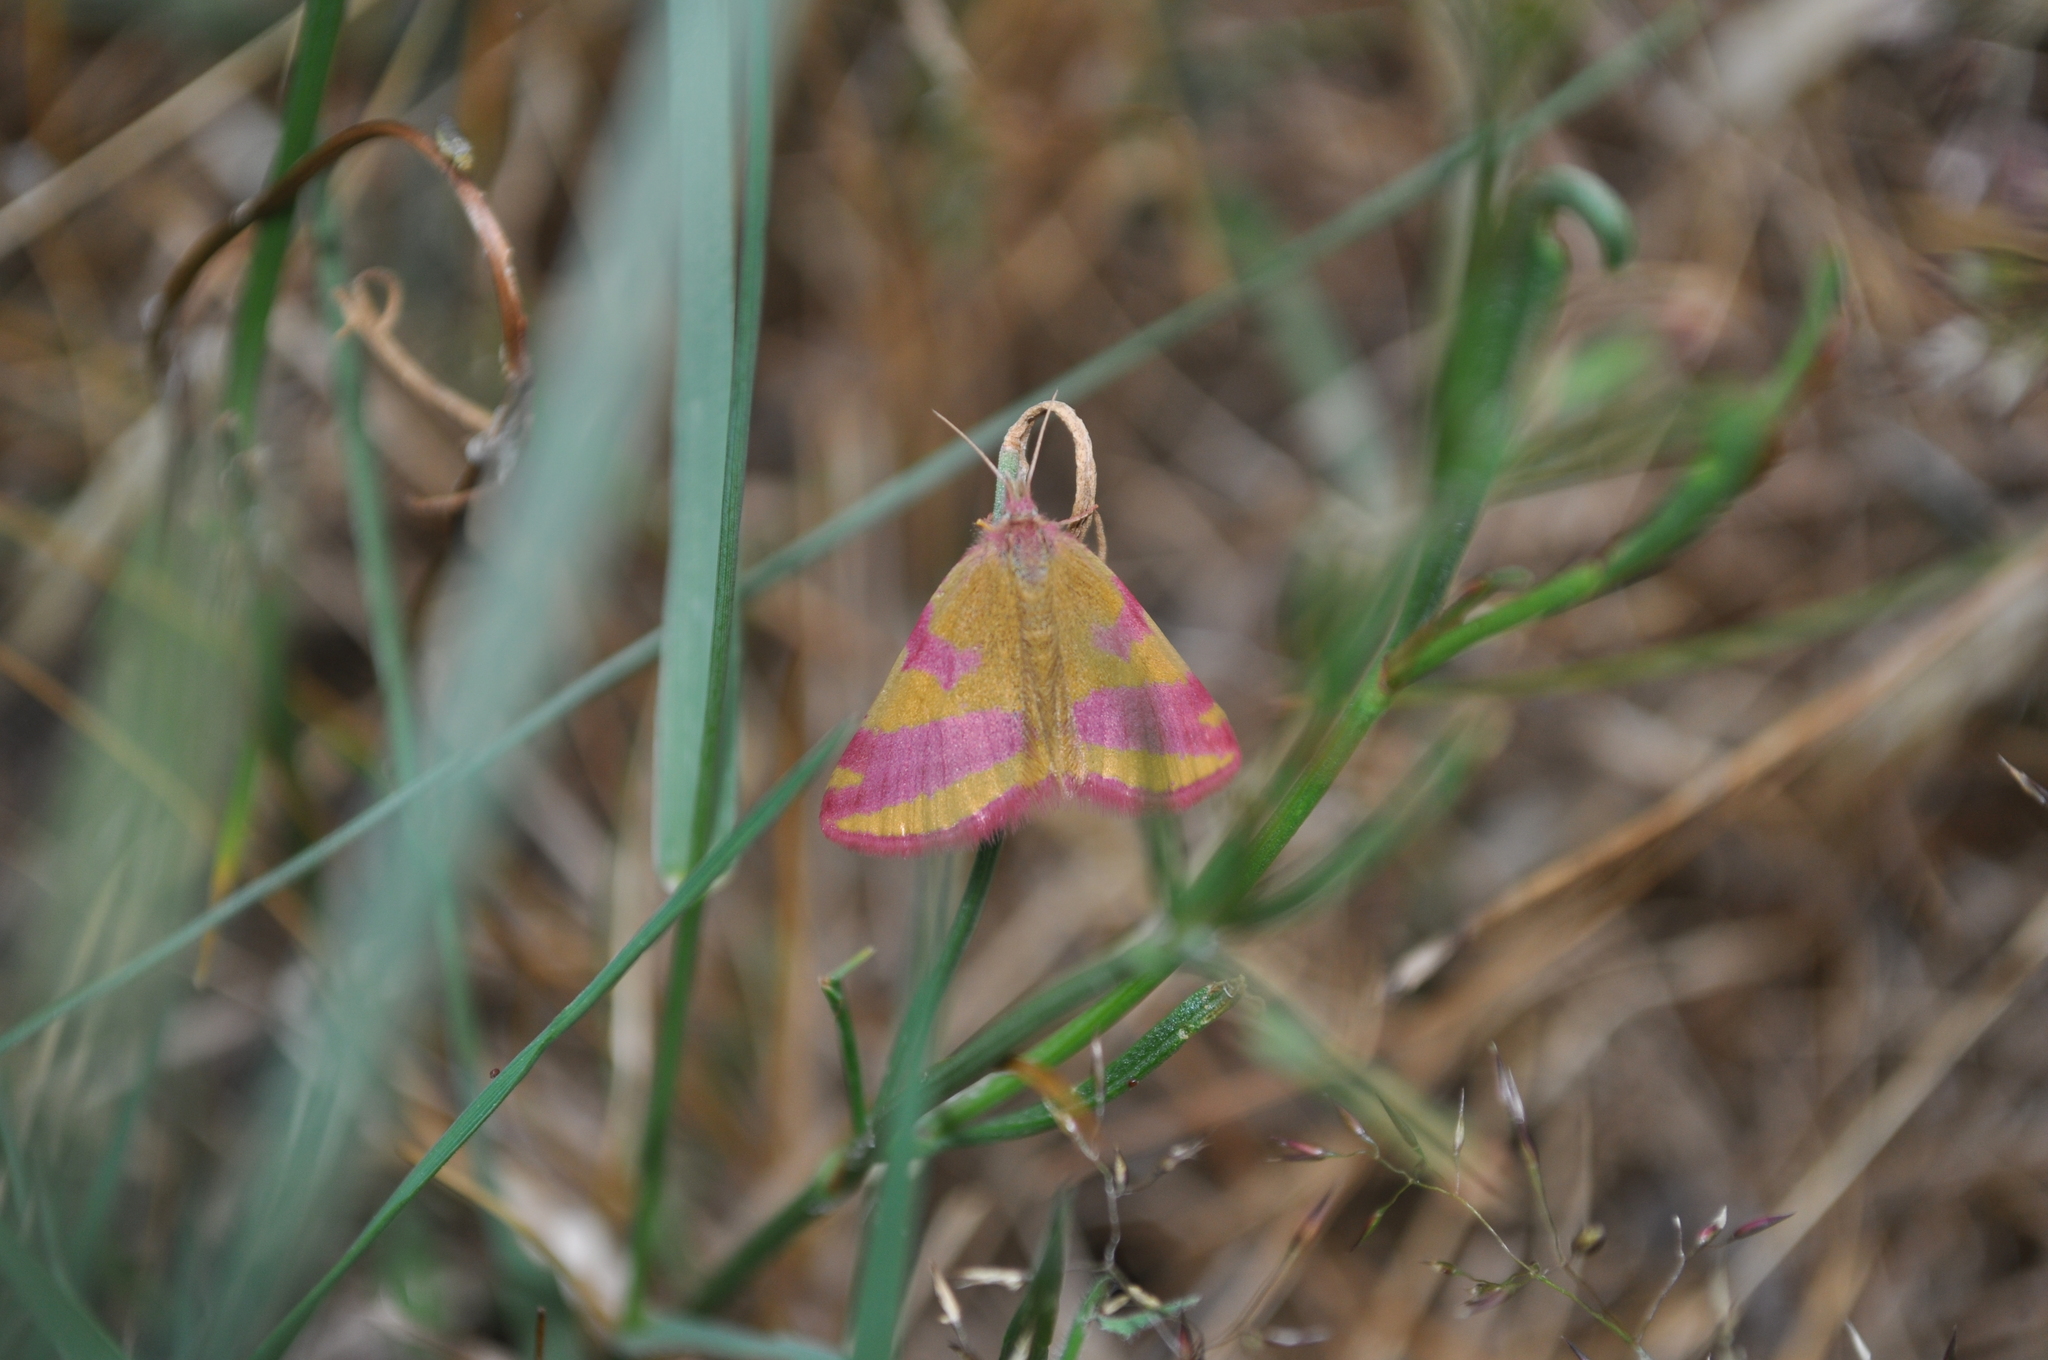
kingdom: Animalia
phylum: Arthropoda
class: Insecta
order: Lepidoptera
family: Geometridae
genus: Lythria
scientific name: Lythria cruentaria
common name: Purple-barred yellow
